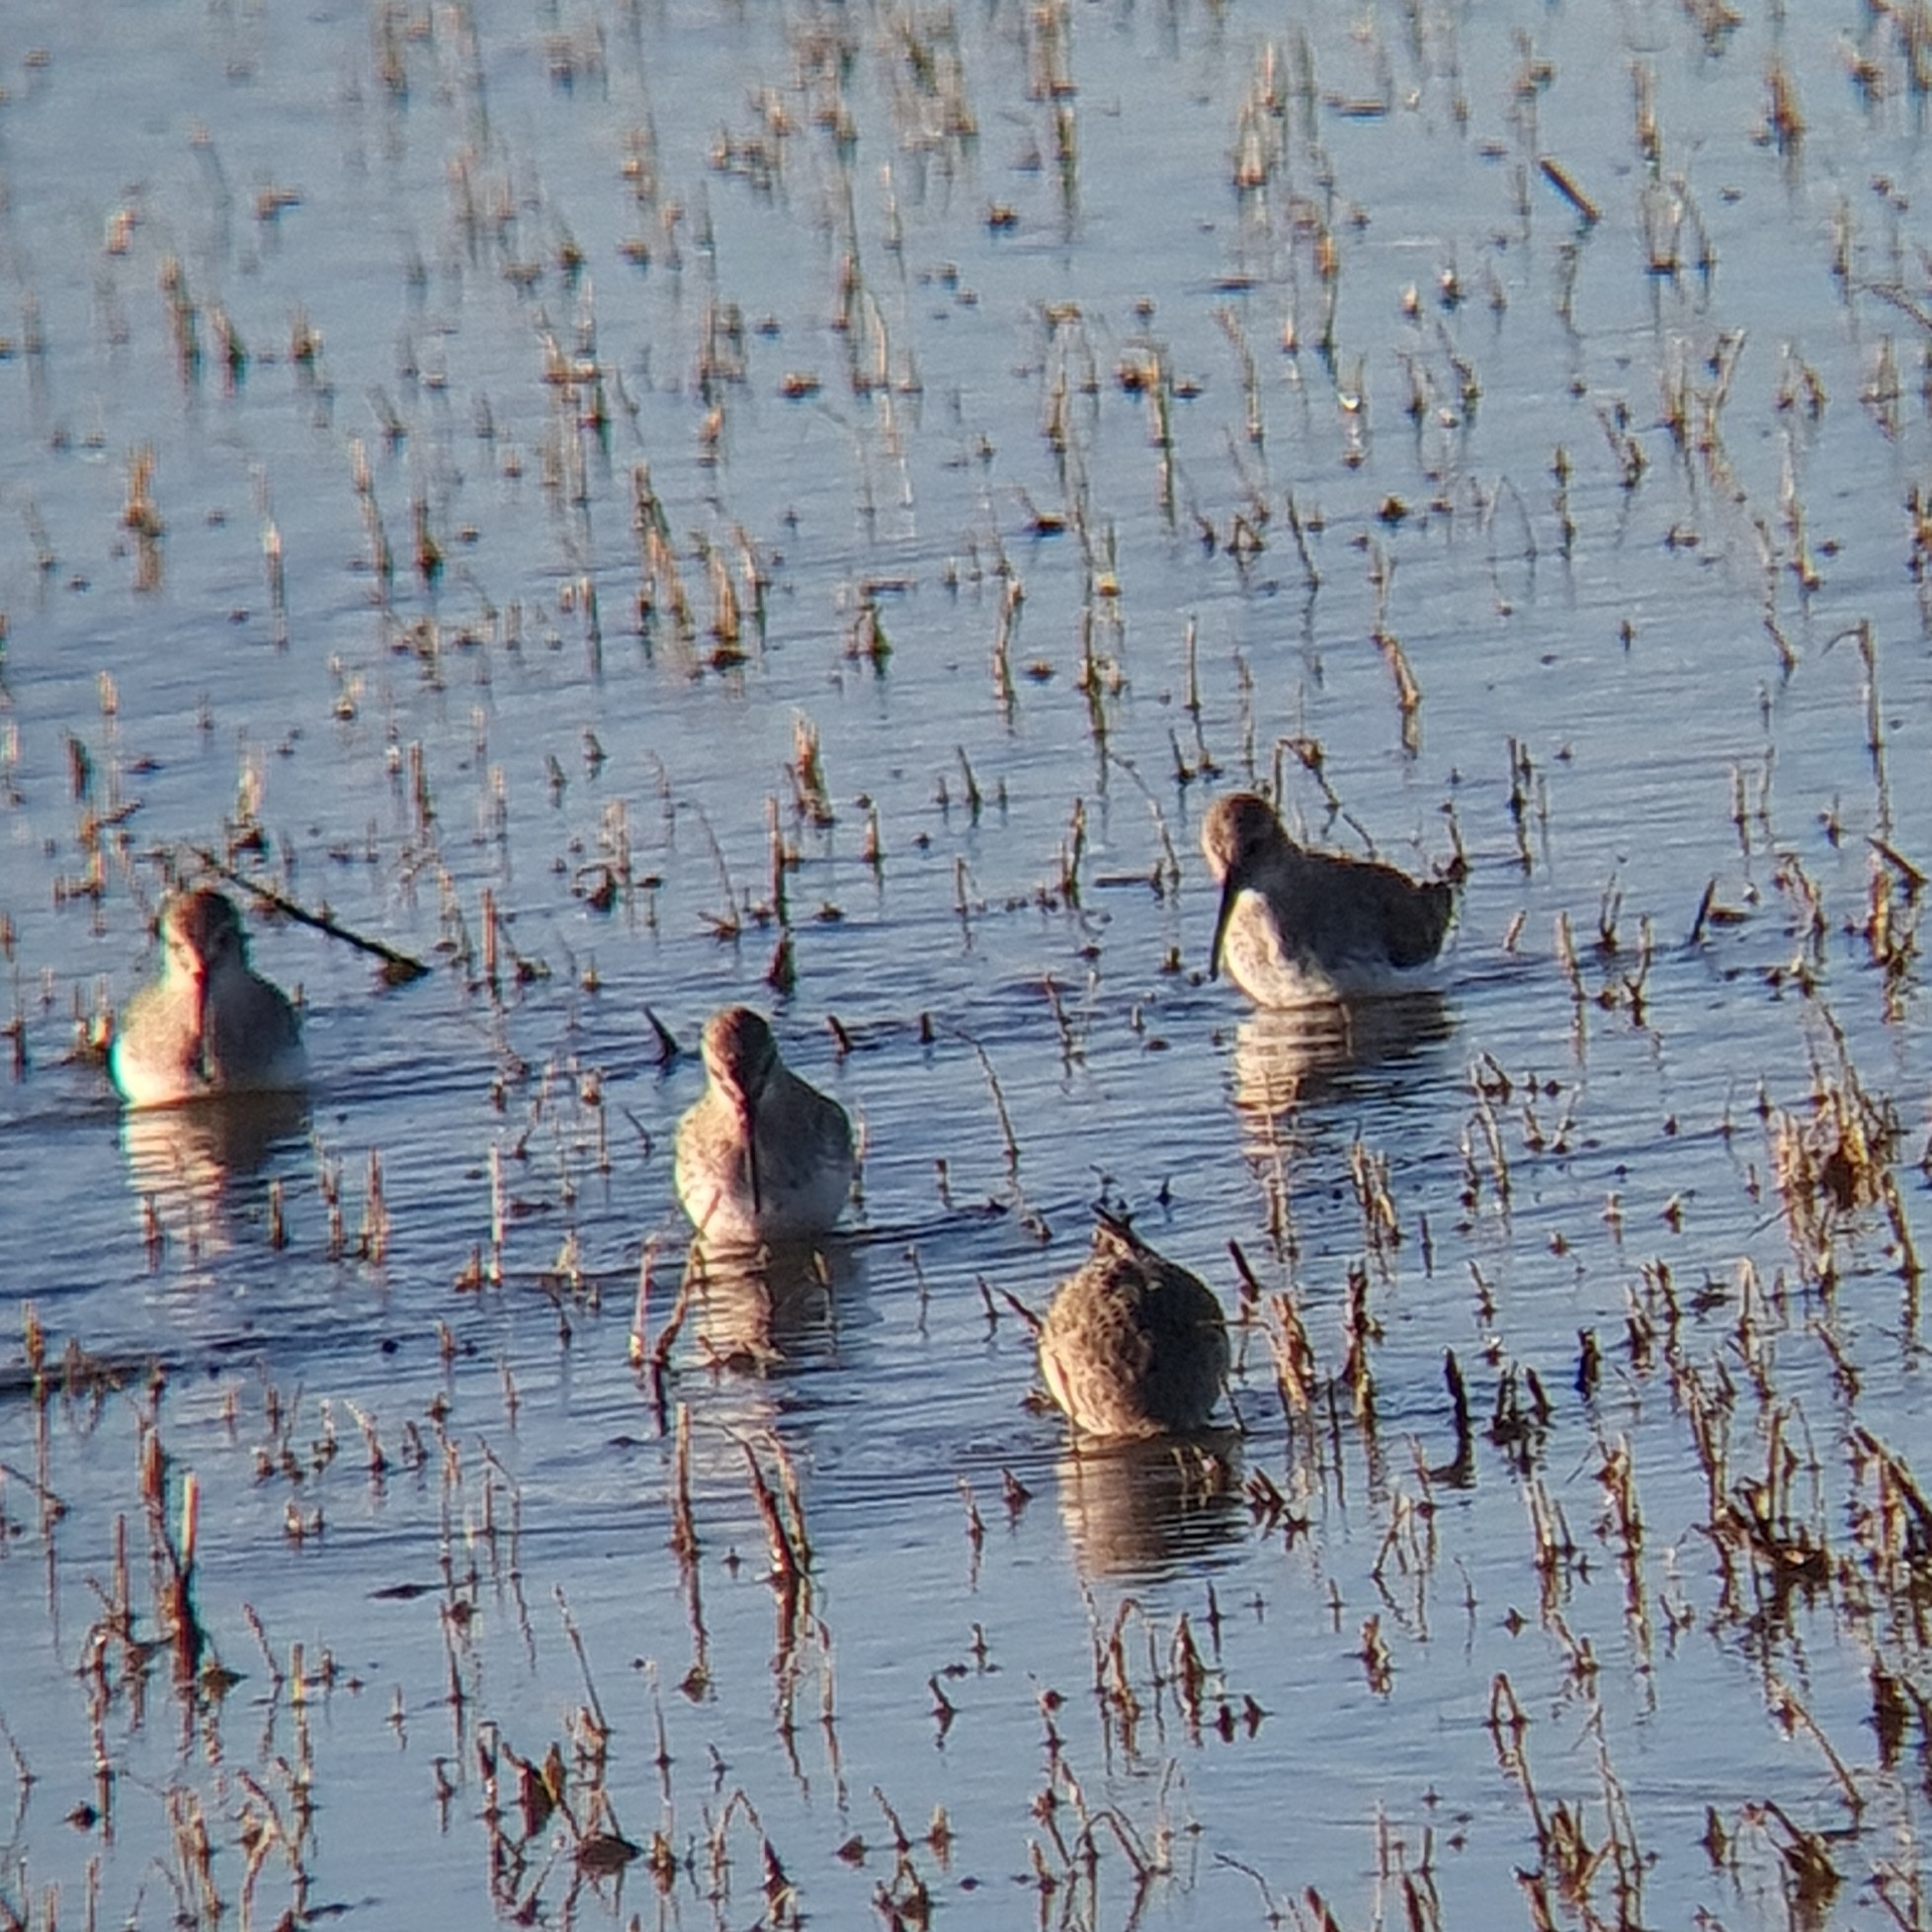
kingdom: Animalia
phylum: Chordata
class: Aves
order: Charadriiformes
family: Scolopacidae
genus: Calidris
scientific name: Calidris alpina
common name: Dunlin
